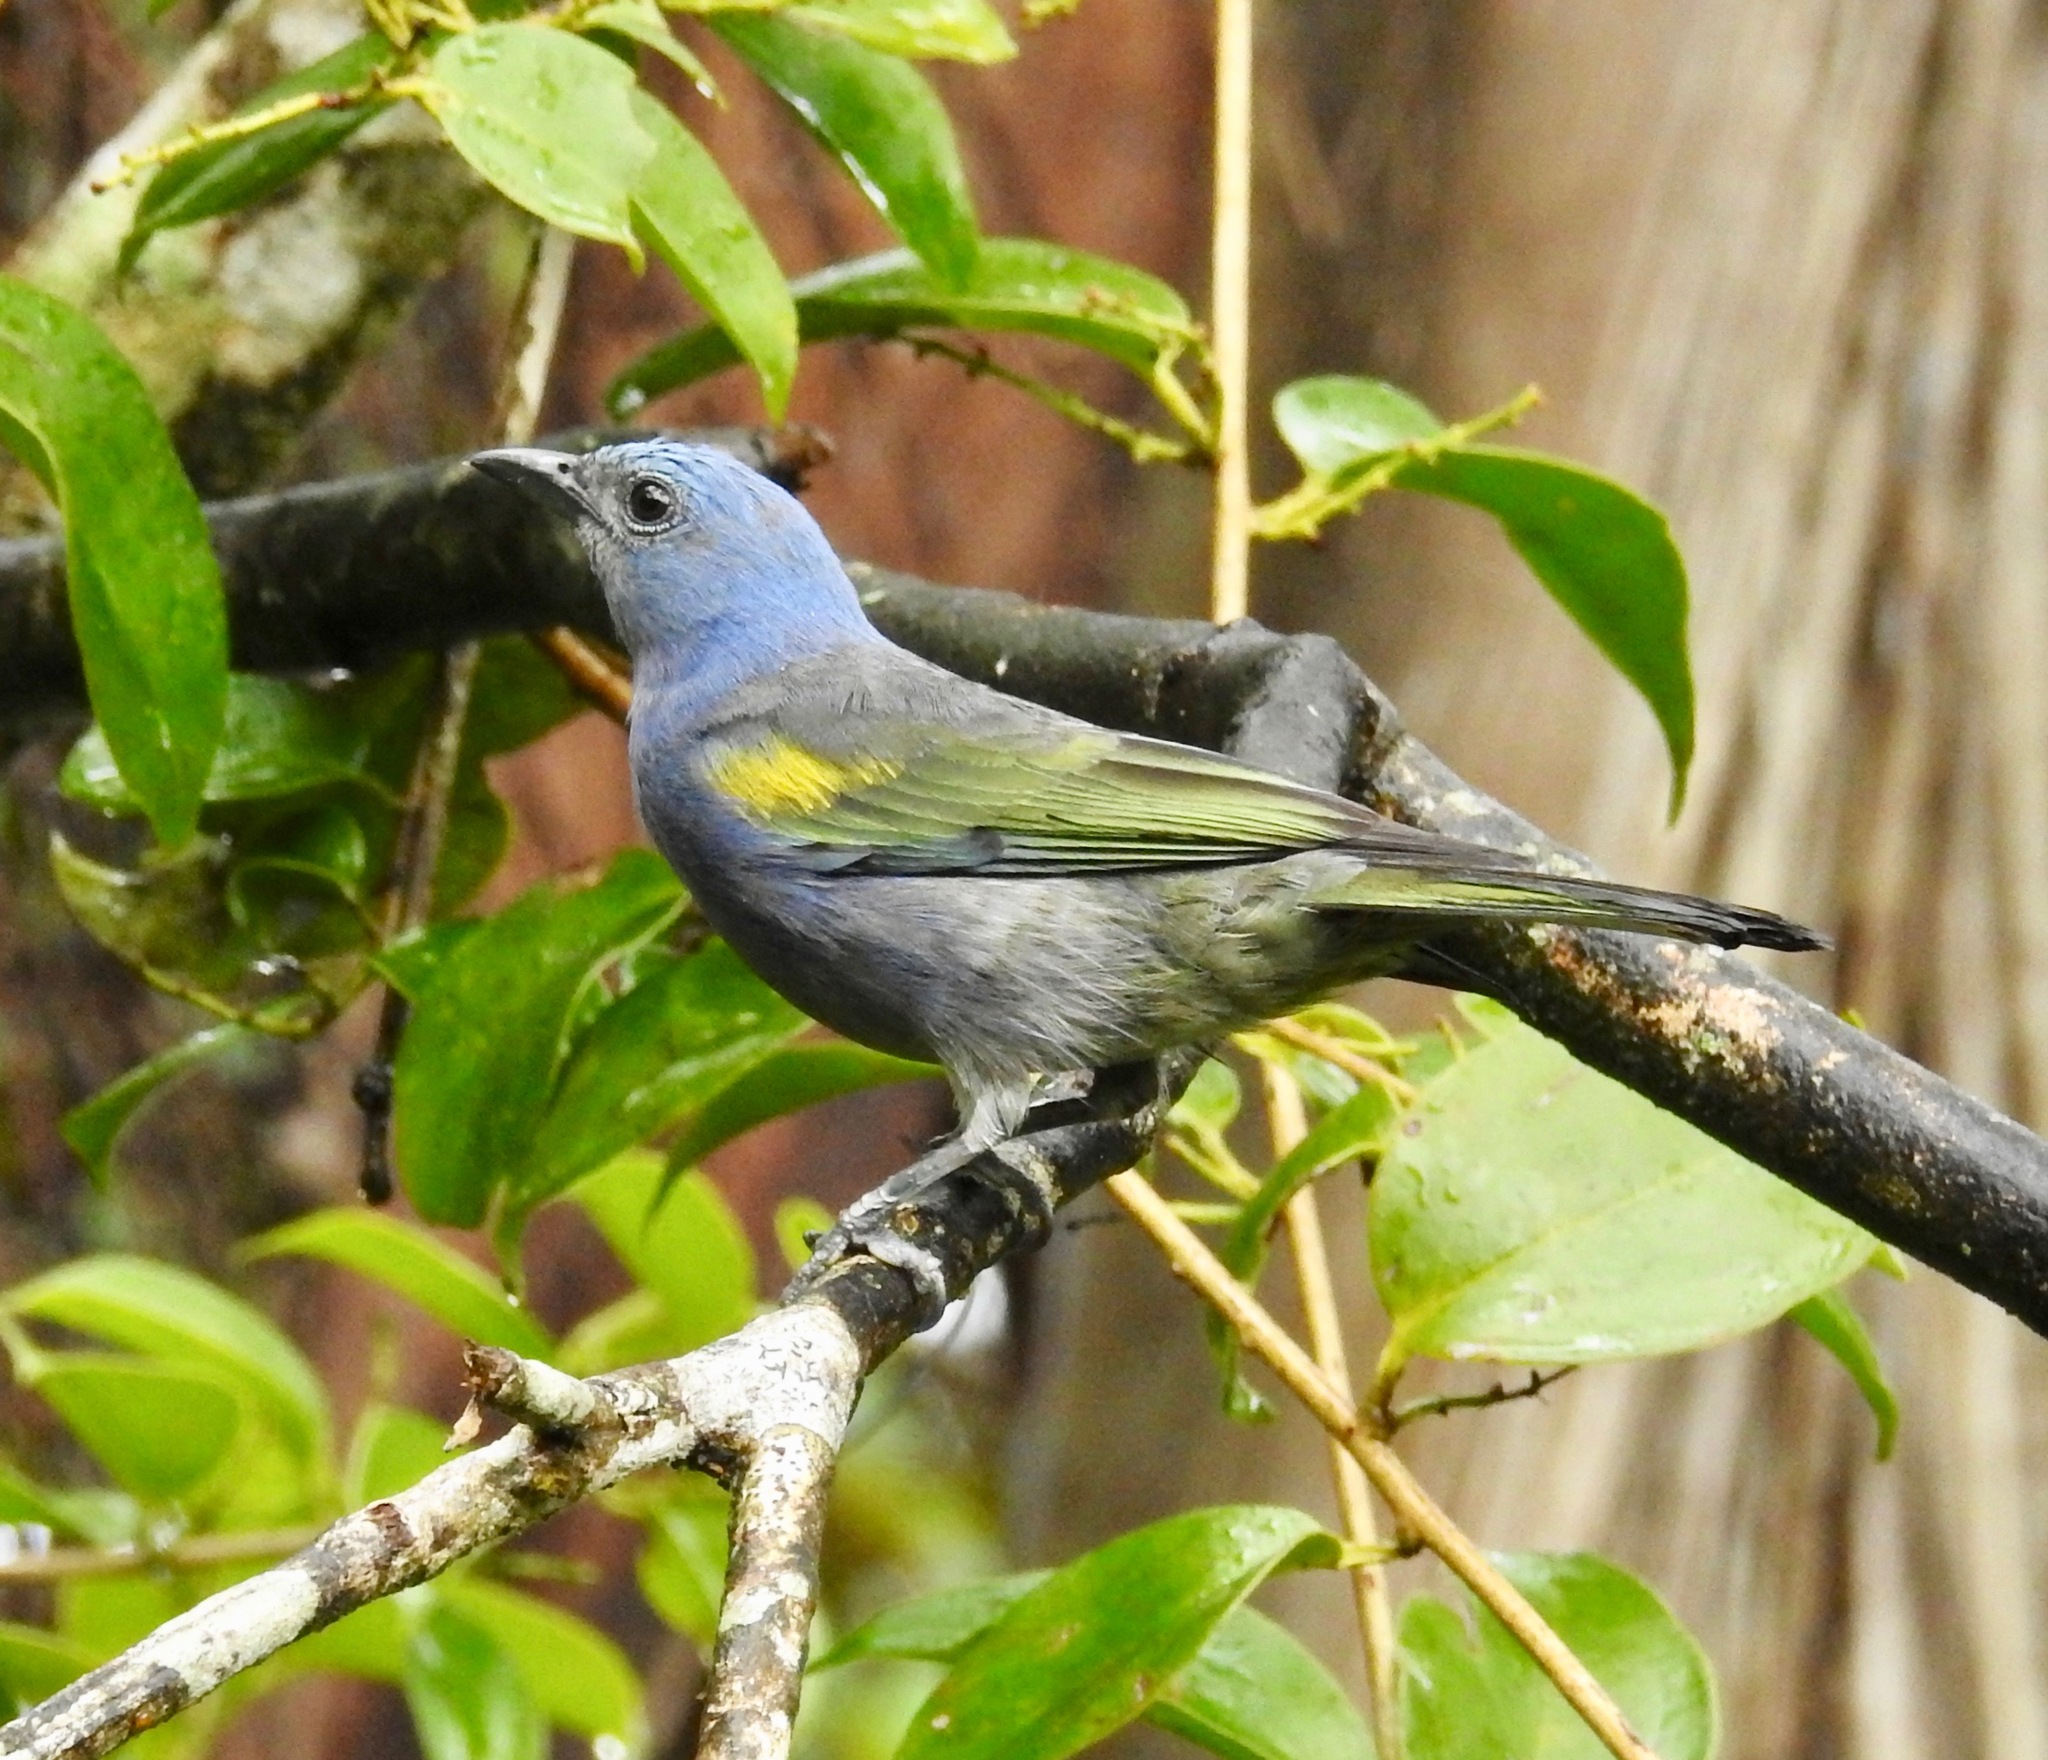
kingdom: Animalia
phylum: Chordata
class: Aves
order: Passeriformes
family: Thraupidae
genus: Thraupis
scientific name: Thraupis ornata
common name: Golden-chevroned tanager
